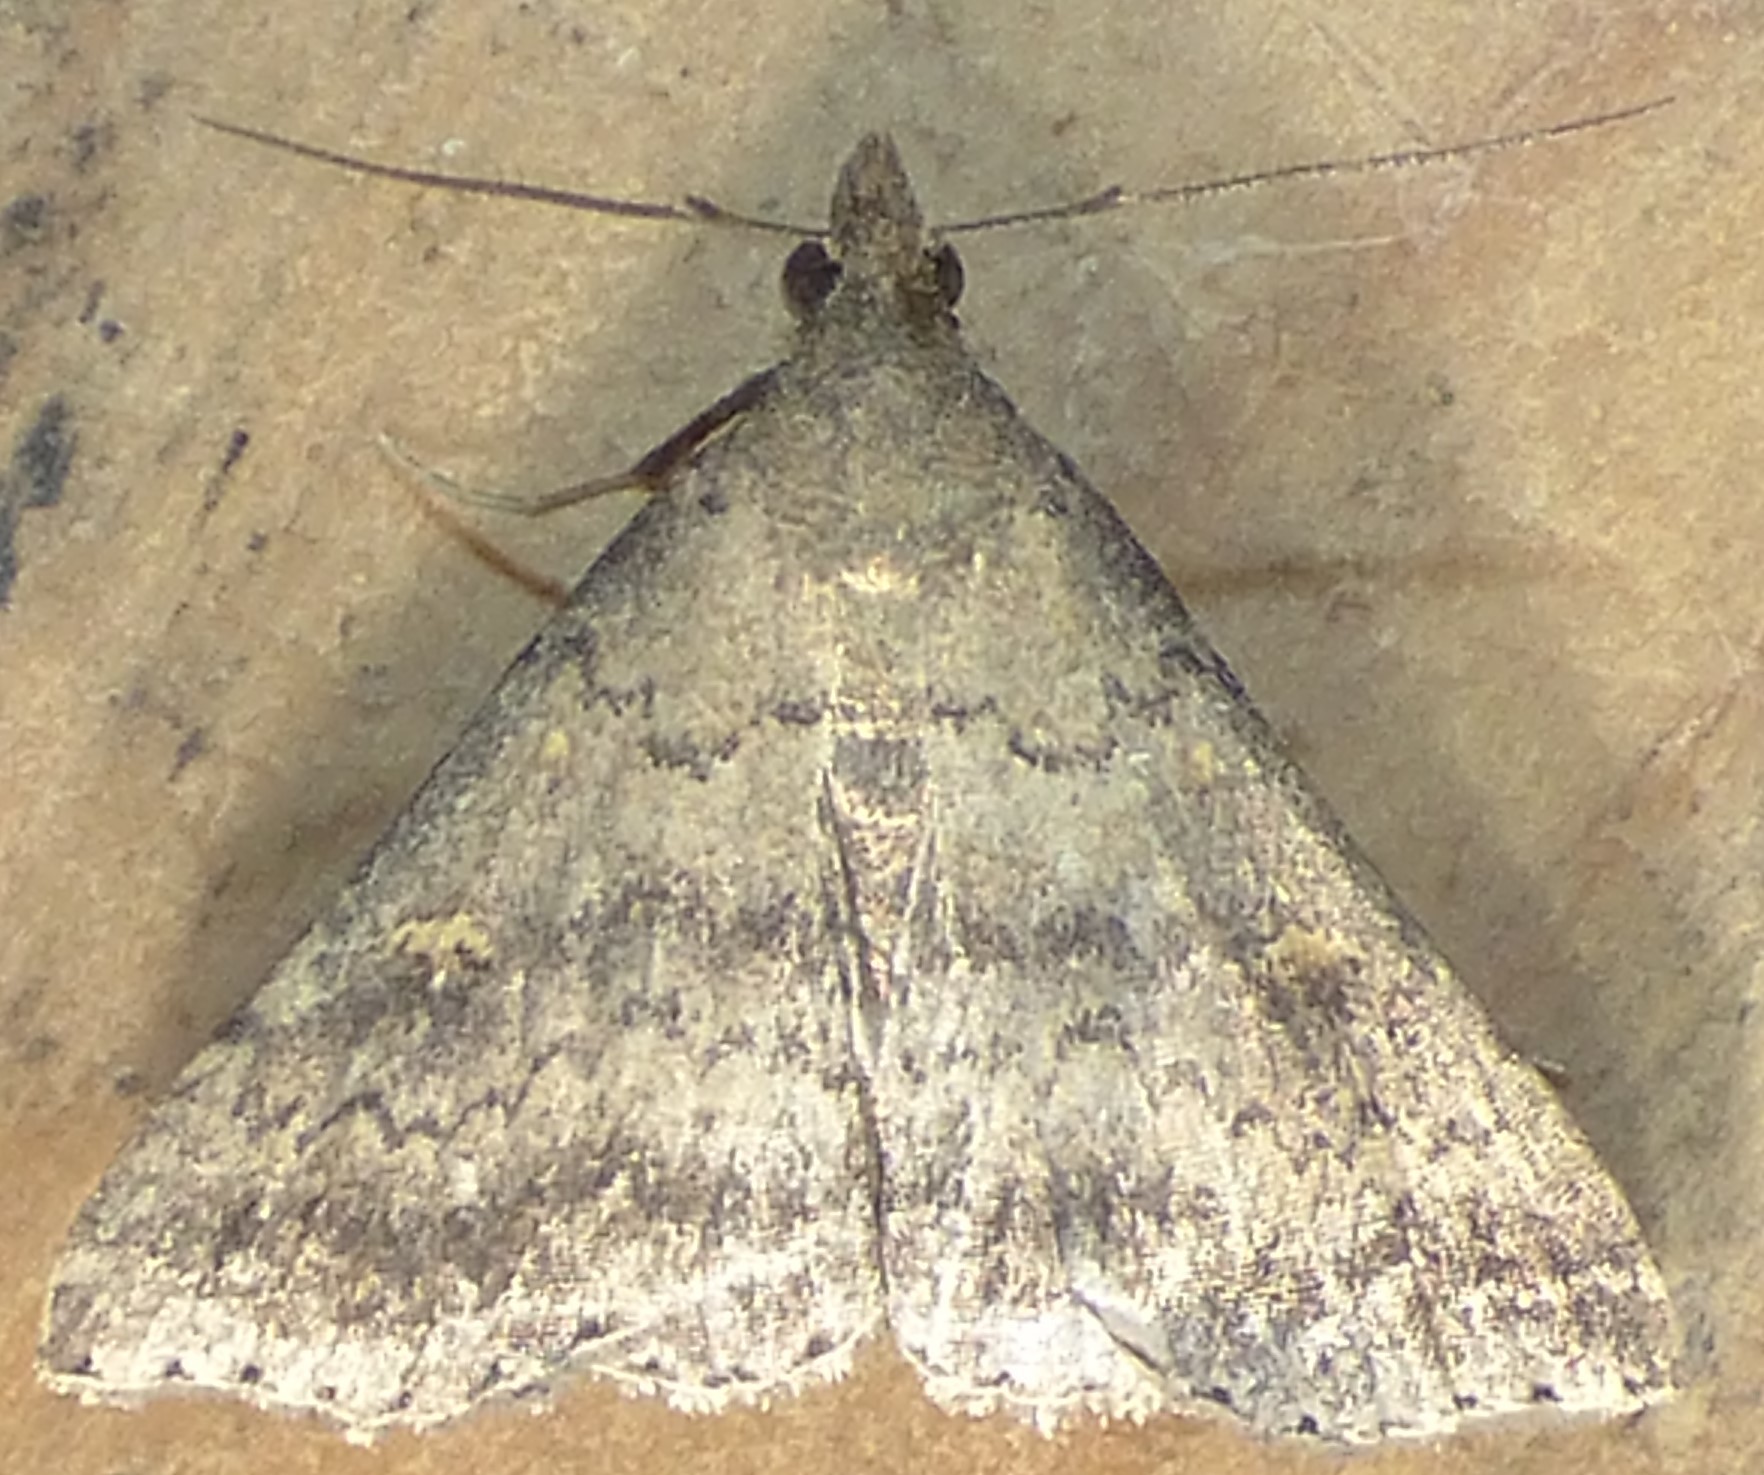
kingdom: Animalia
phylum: Arthropoda
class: Insecta
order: Lepidoptera
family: Erebidae
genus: Tetanolita
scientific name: Tetanolita floridana
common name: Florida tetanolita moth
